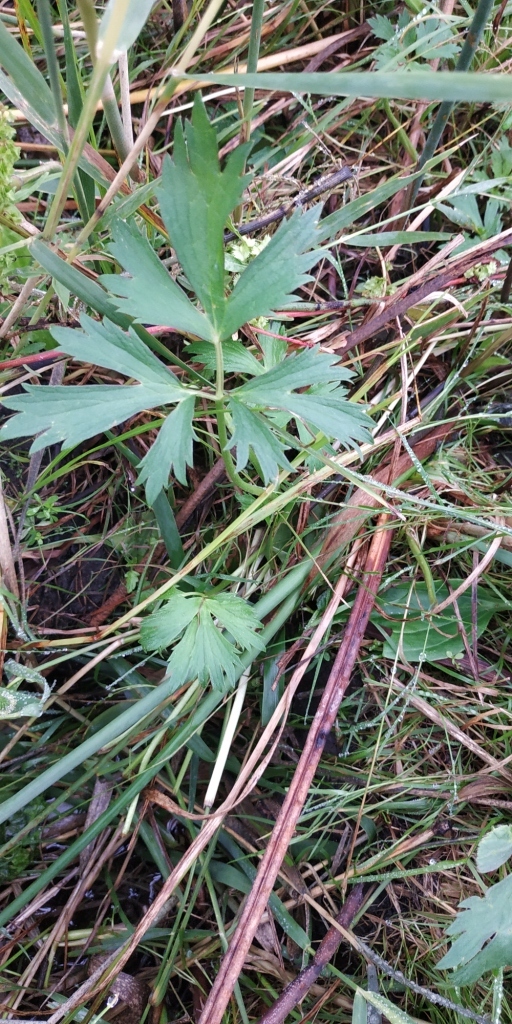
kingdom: Plantae
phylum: Tracheophyta
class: Magnoliopsida
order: Ranunculales
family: Ranunculaceae
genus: Ranunculus
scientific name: Ranunculus repens
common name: Creeping buttercup
